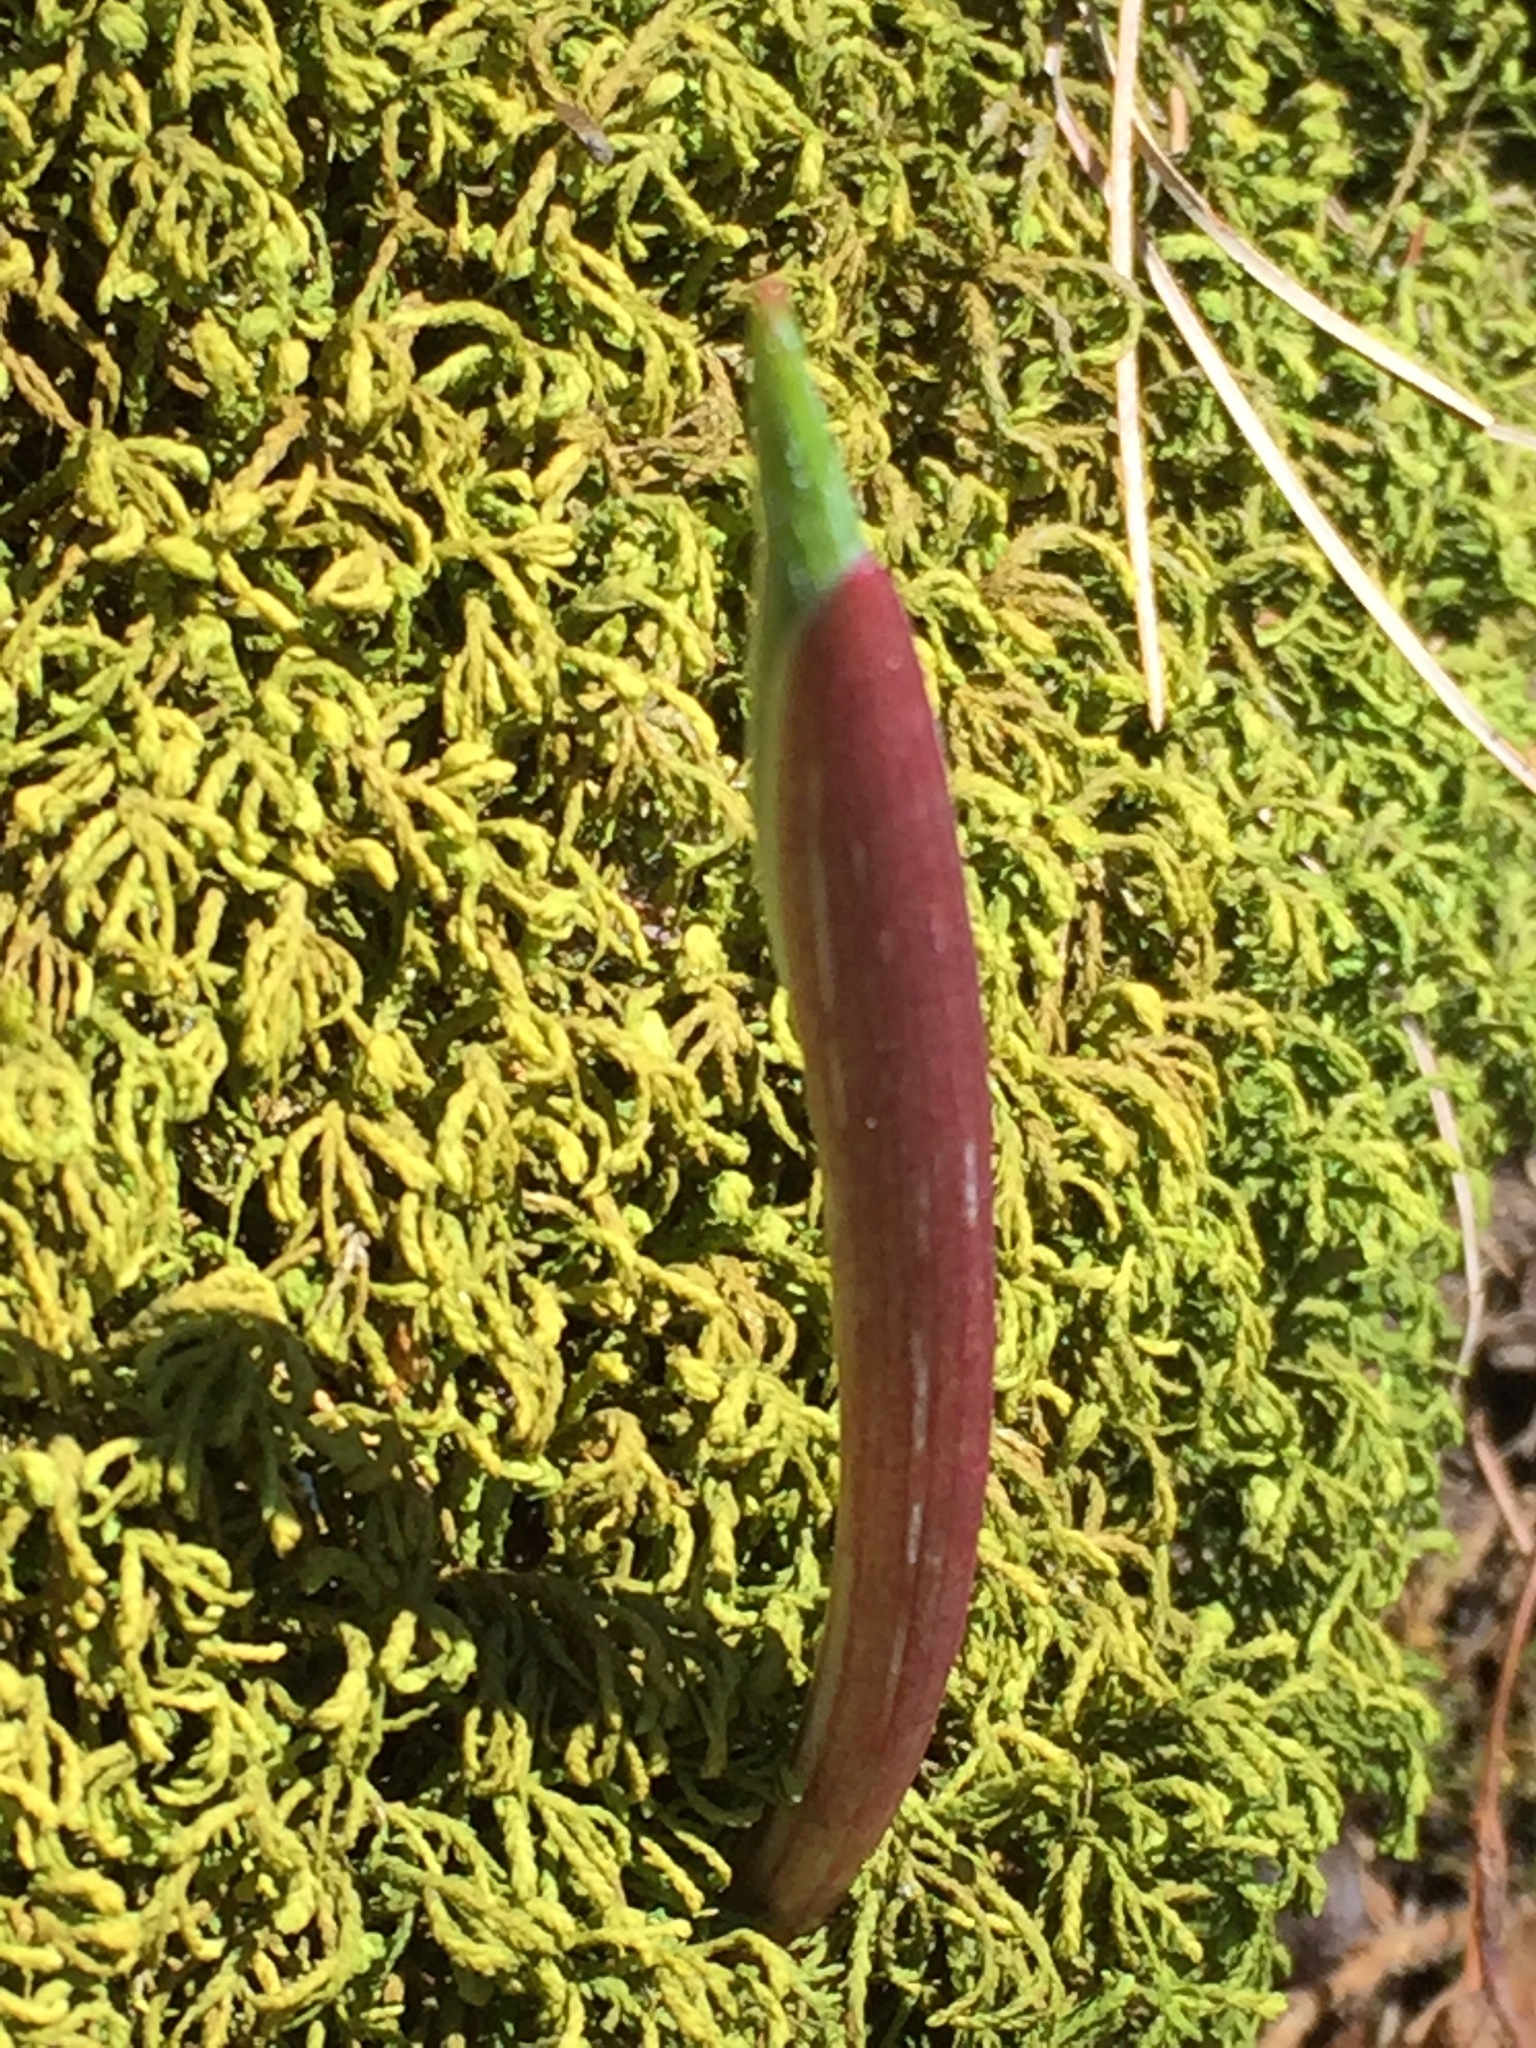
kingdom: Plantae
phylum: Tracheophyta
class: Liliopsida
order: Asparagales
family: Asparagaceae
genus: Maianthemum
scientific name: Maianthemum racemosum
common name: False spikenard
